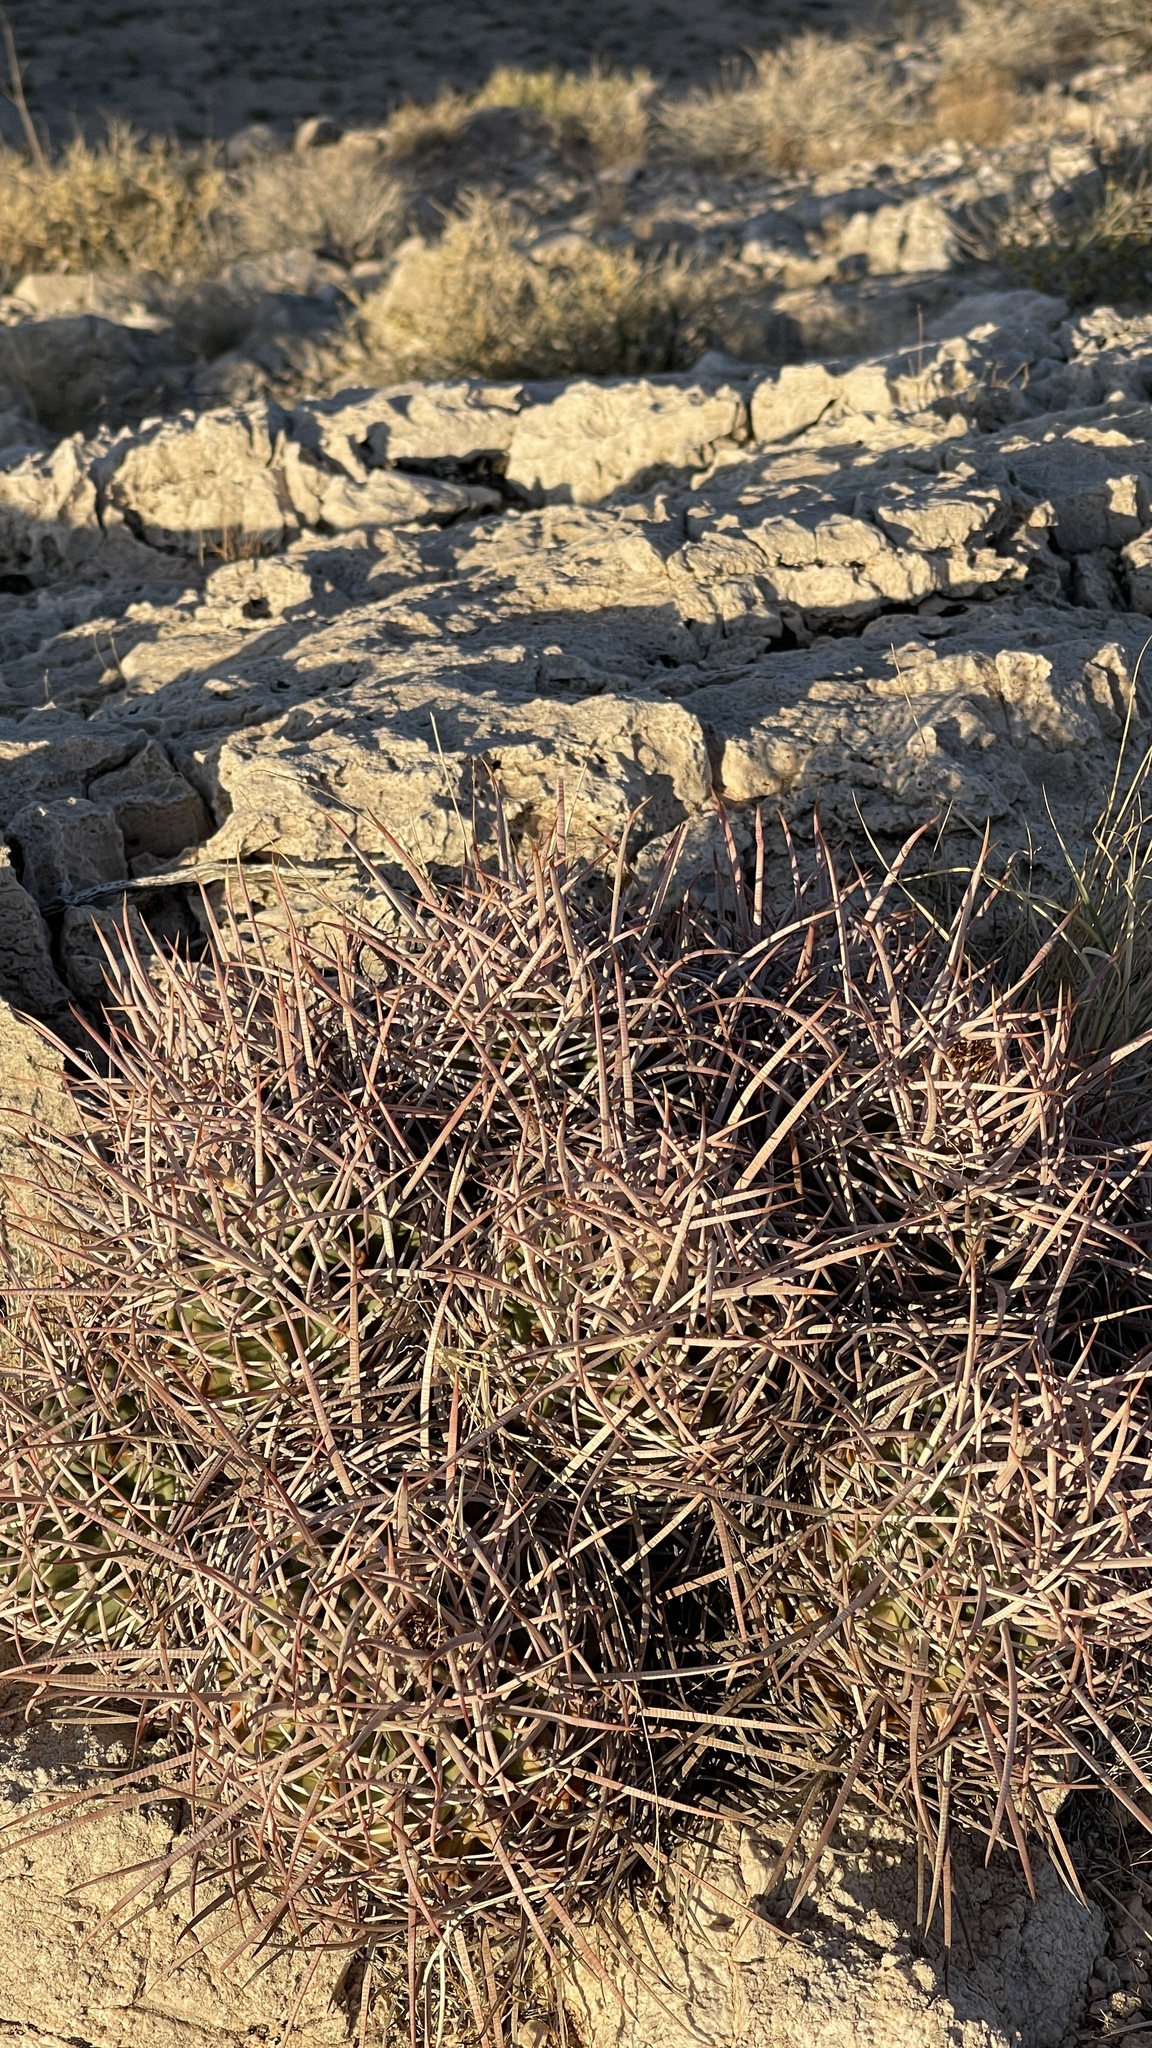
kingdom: Plantae
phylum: Tracheophyta
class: Magnoliopsida
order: Caryophyllales
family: Cactaceae
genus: Echinocactus
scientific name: Echinocactus polycephalus
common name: Cottontop cactus
